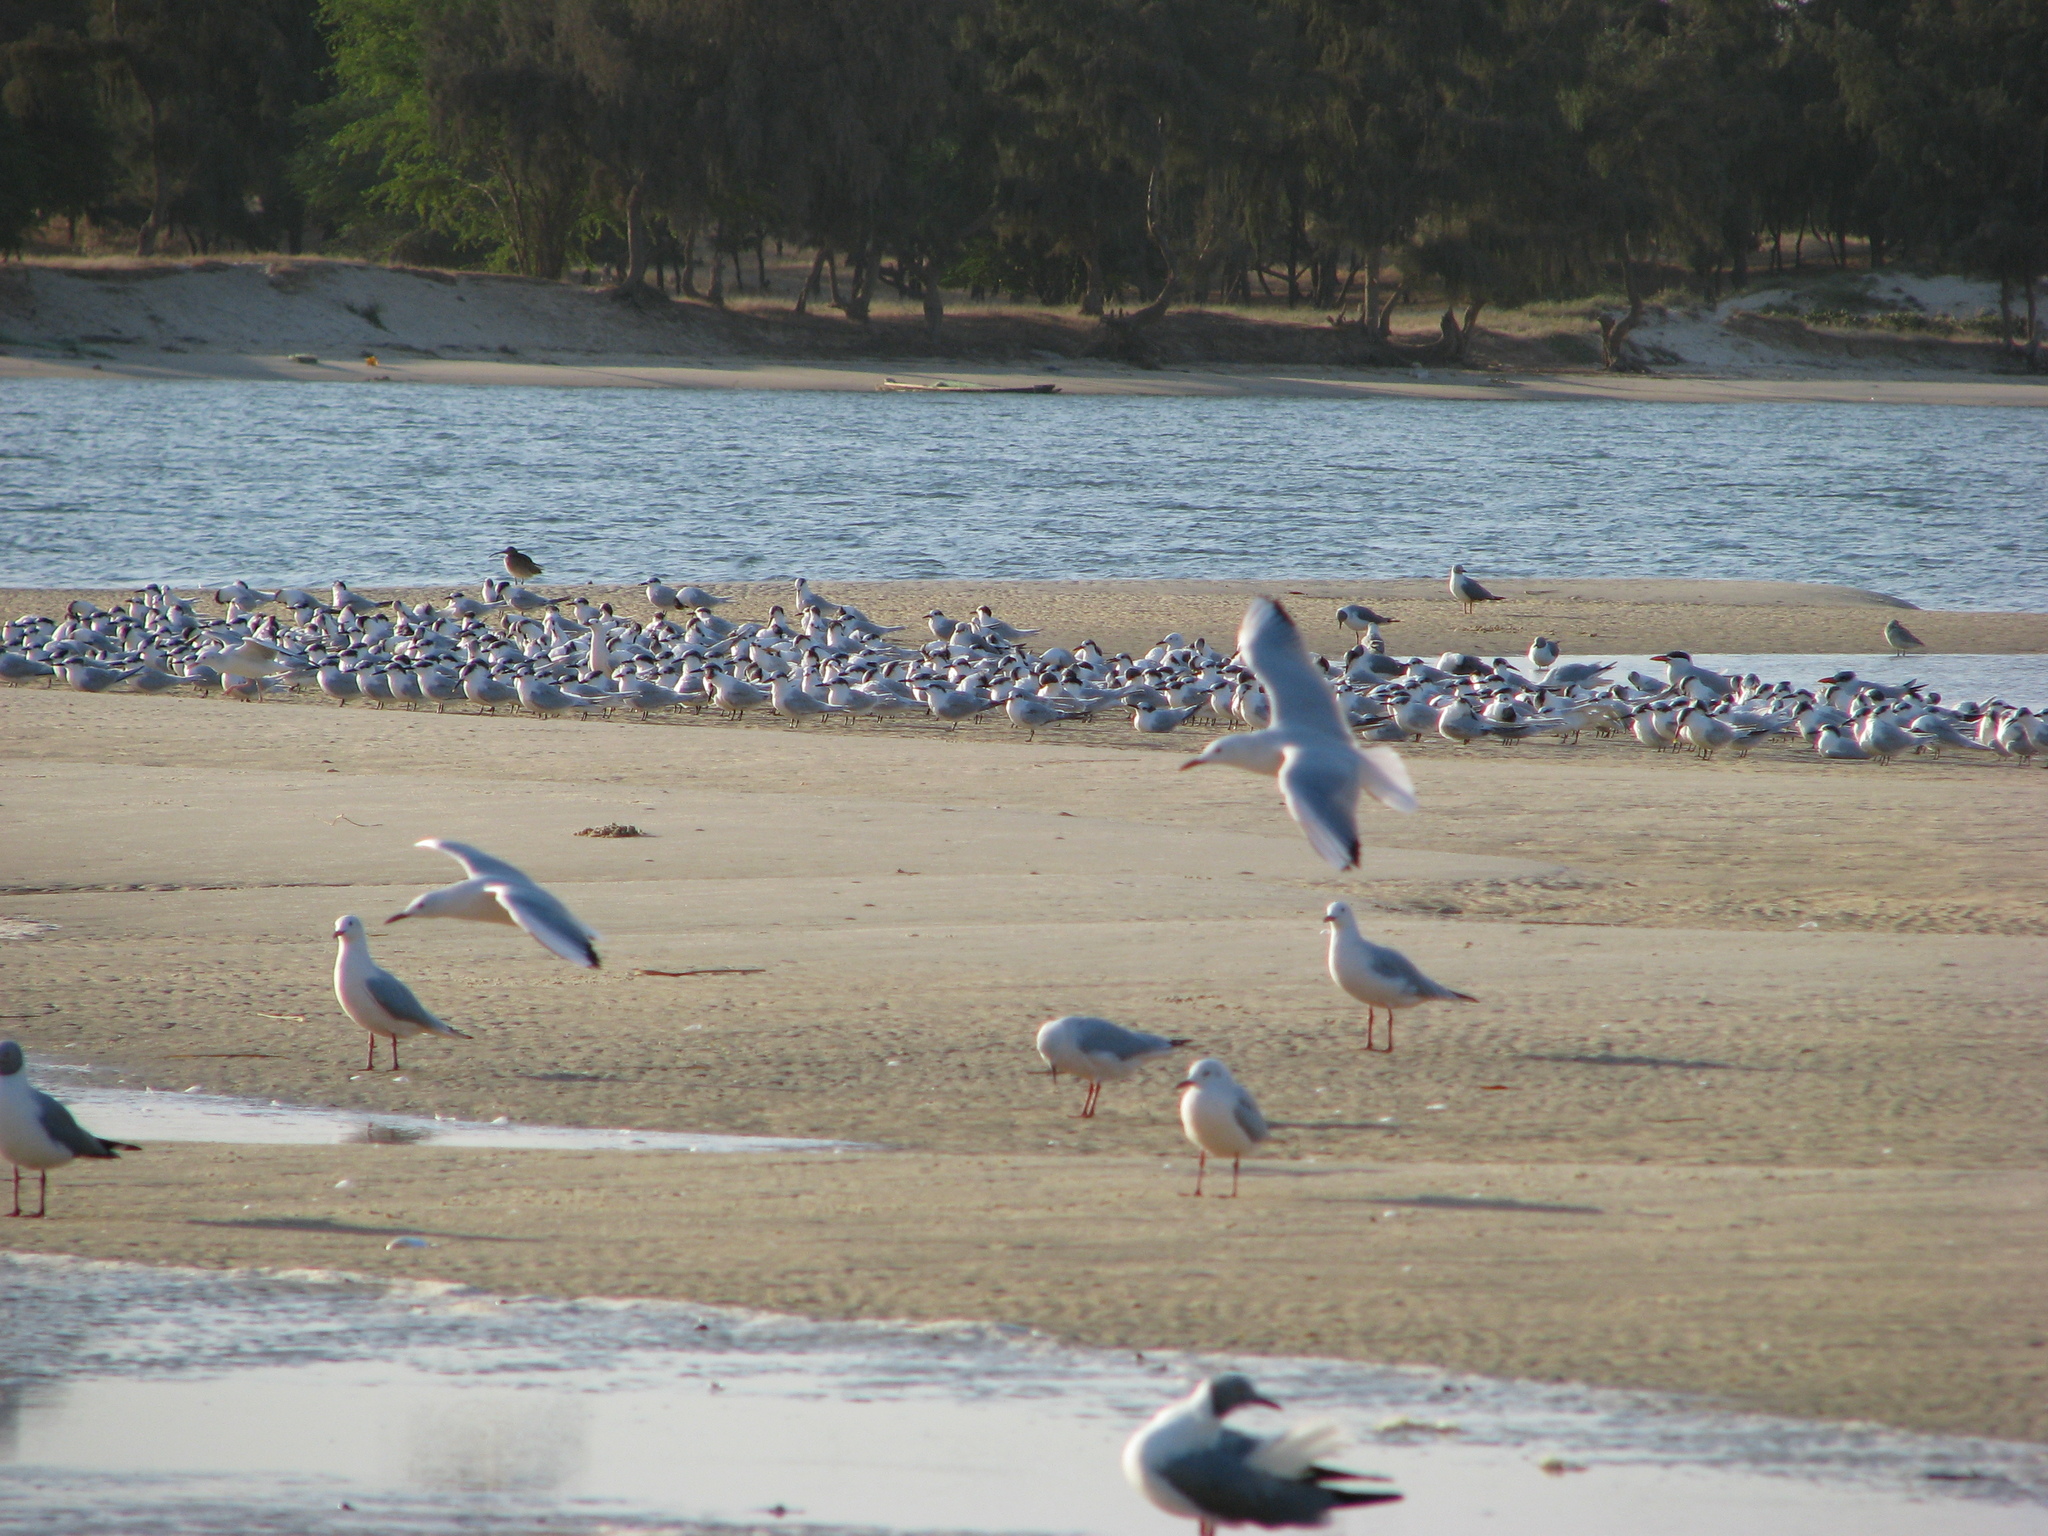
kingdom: Animalia
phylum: Chordata
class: Aves
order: Charadriiformes
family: Laridae
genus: Chroicocephalus
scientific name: Chroicocephalus genei
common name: Slender-billed gull
